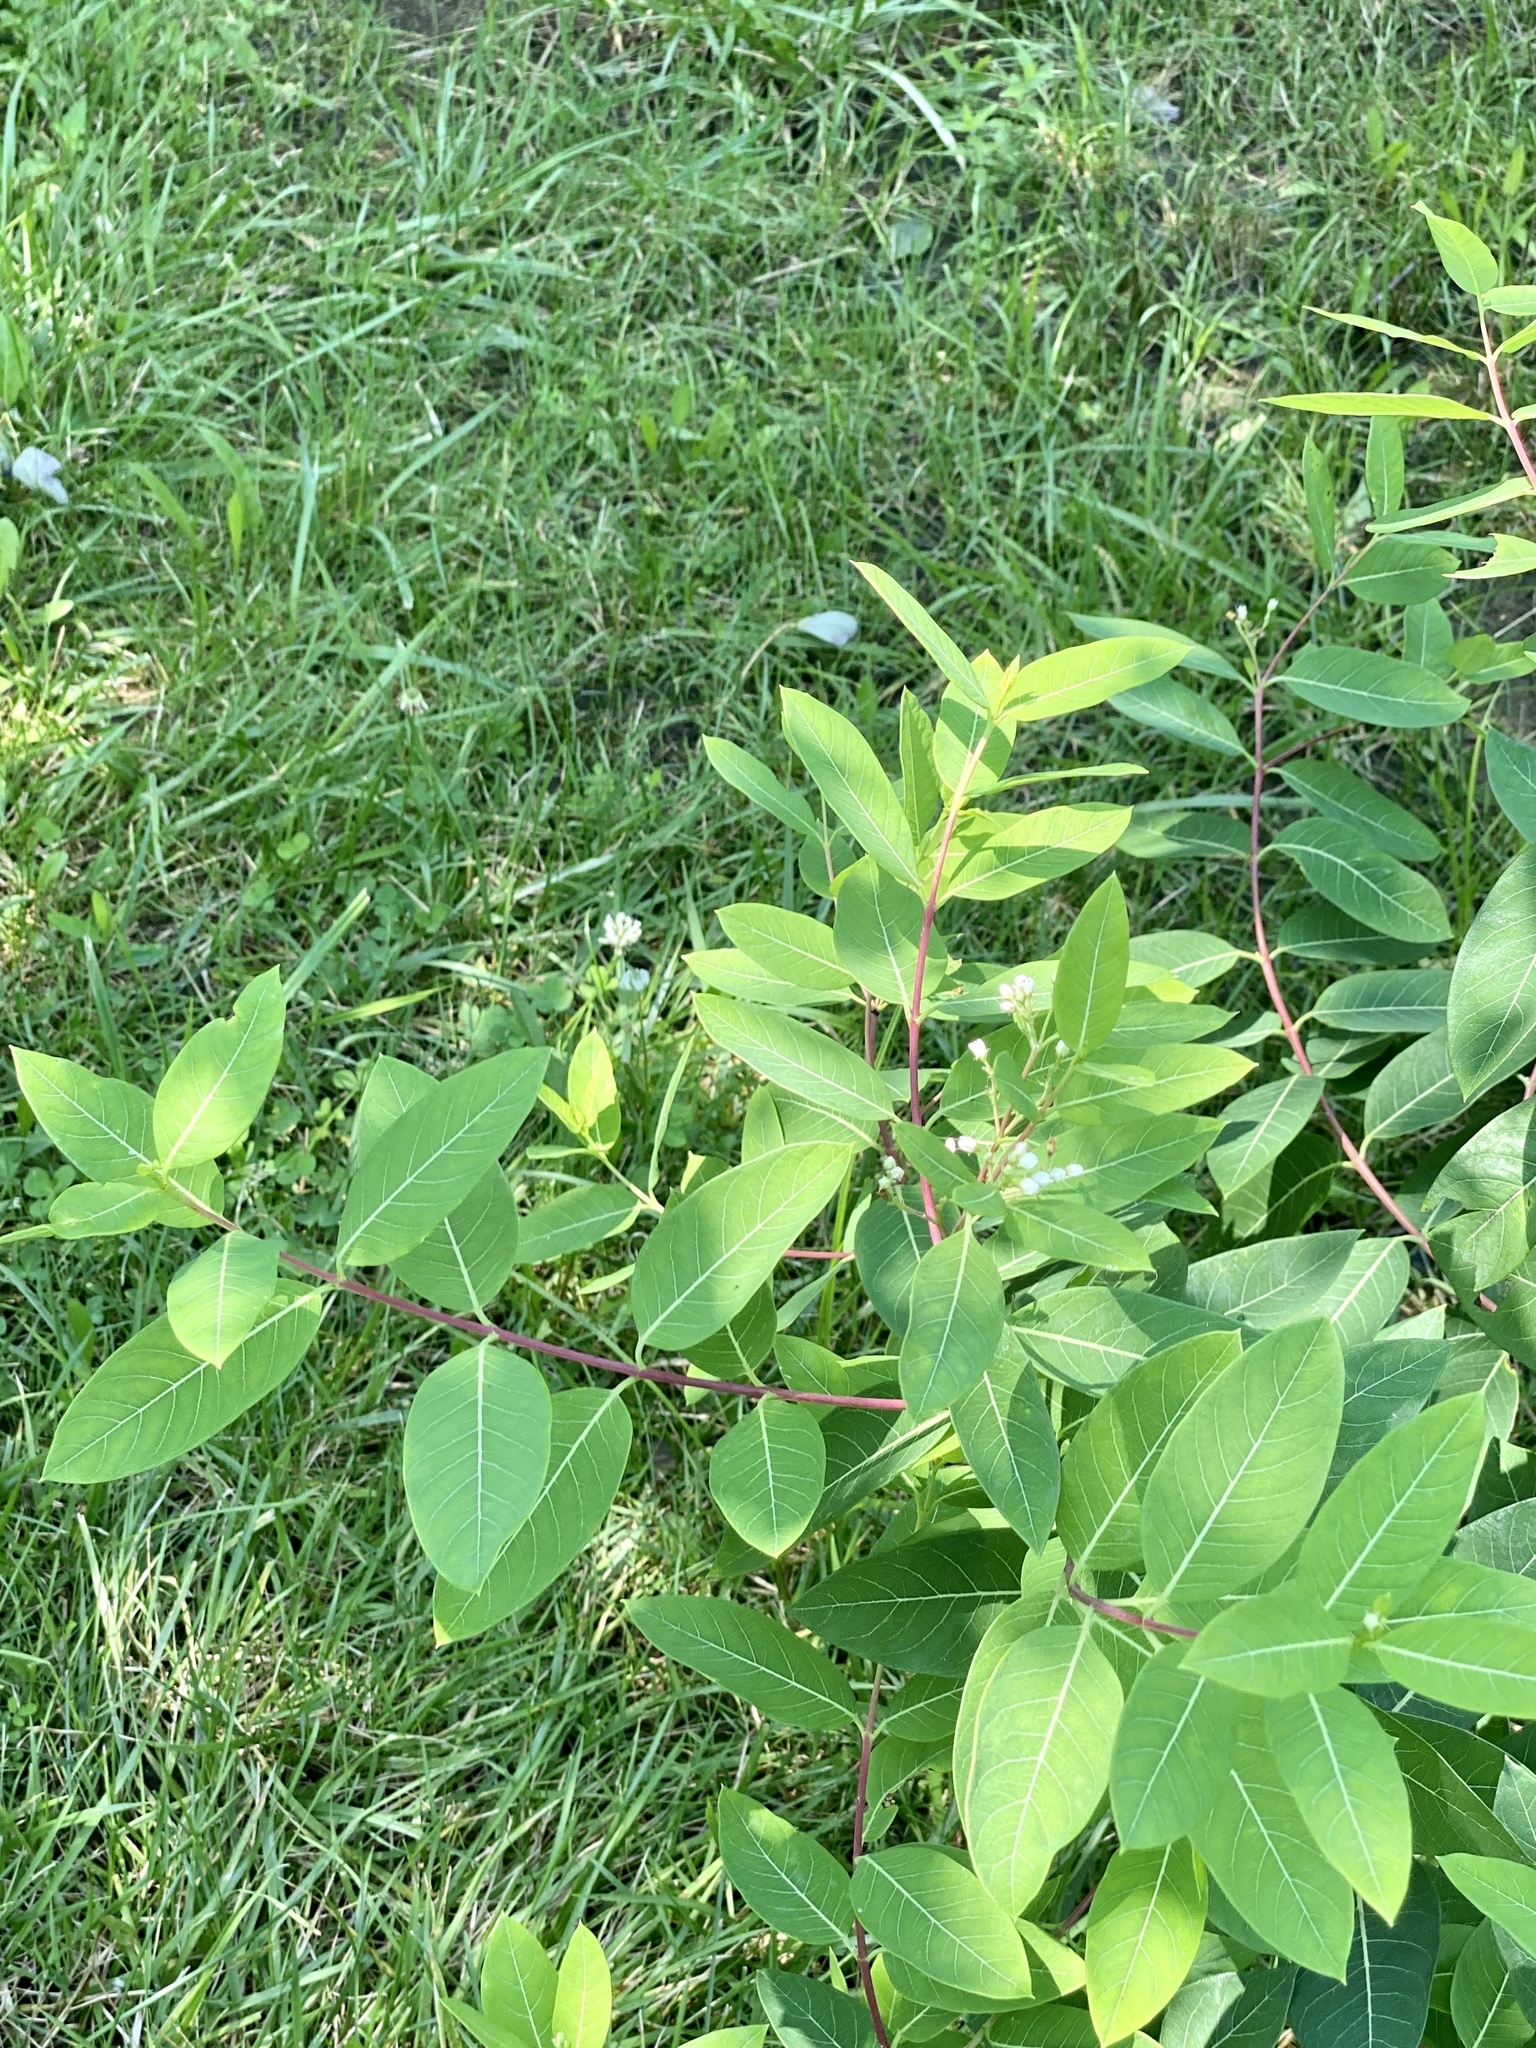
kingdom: Plantae
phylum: Tracheophyta
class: Magnoliopsida
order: Gentianales
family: Apocynaceae
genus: Apocynum
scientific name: Apocynum cannabinum
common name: Hemp dogbane
